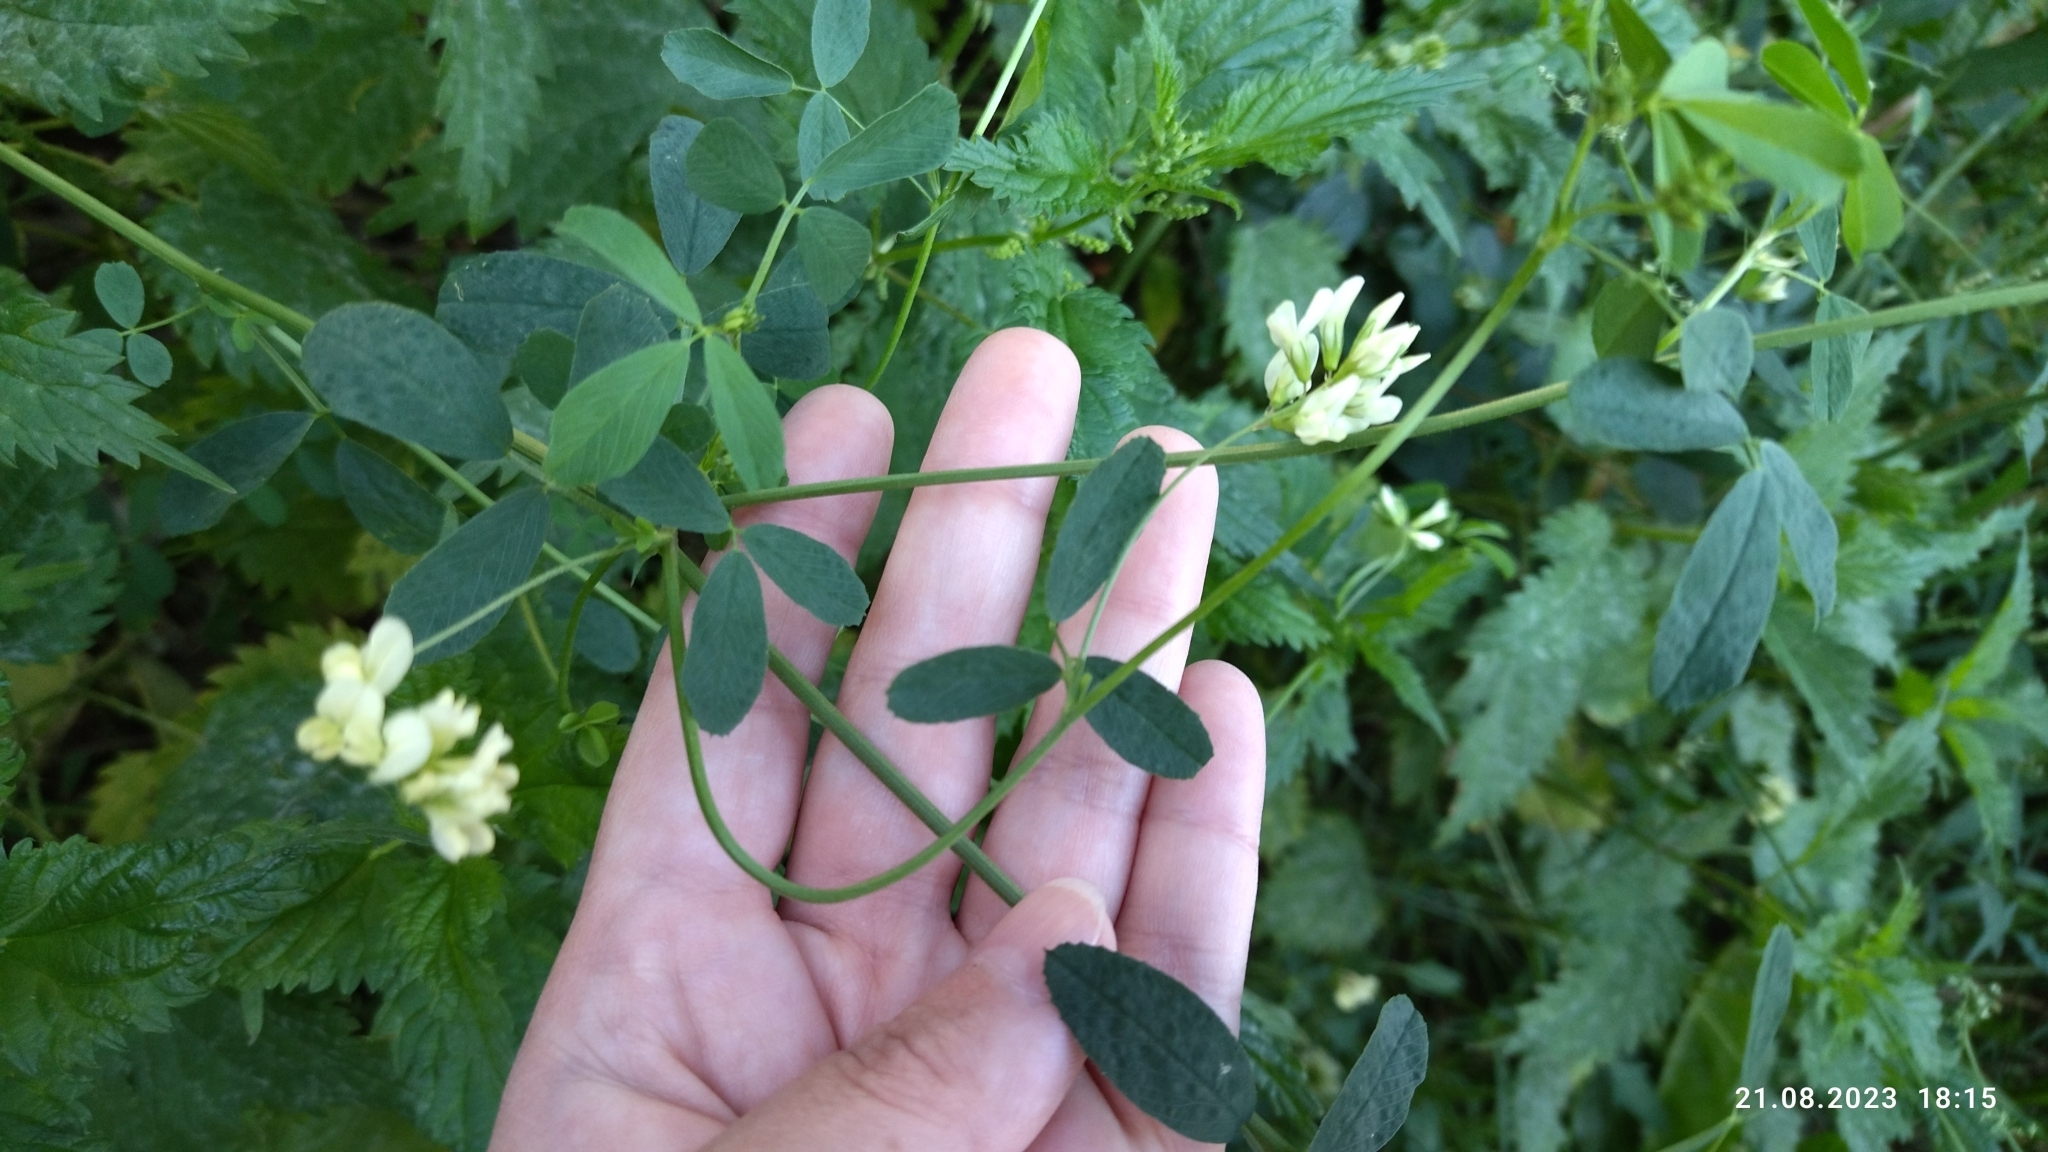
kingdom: Plantae
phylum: Tracheophyta
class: Magnoliopsida
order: Fabales
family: Fabaceae
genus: Medicago
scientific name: Medicago varia
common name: Sand lucerne
